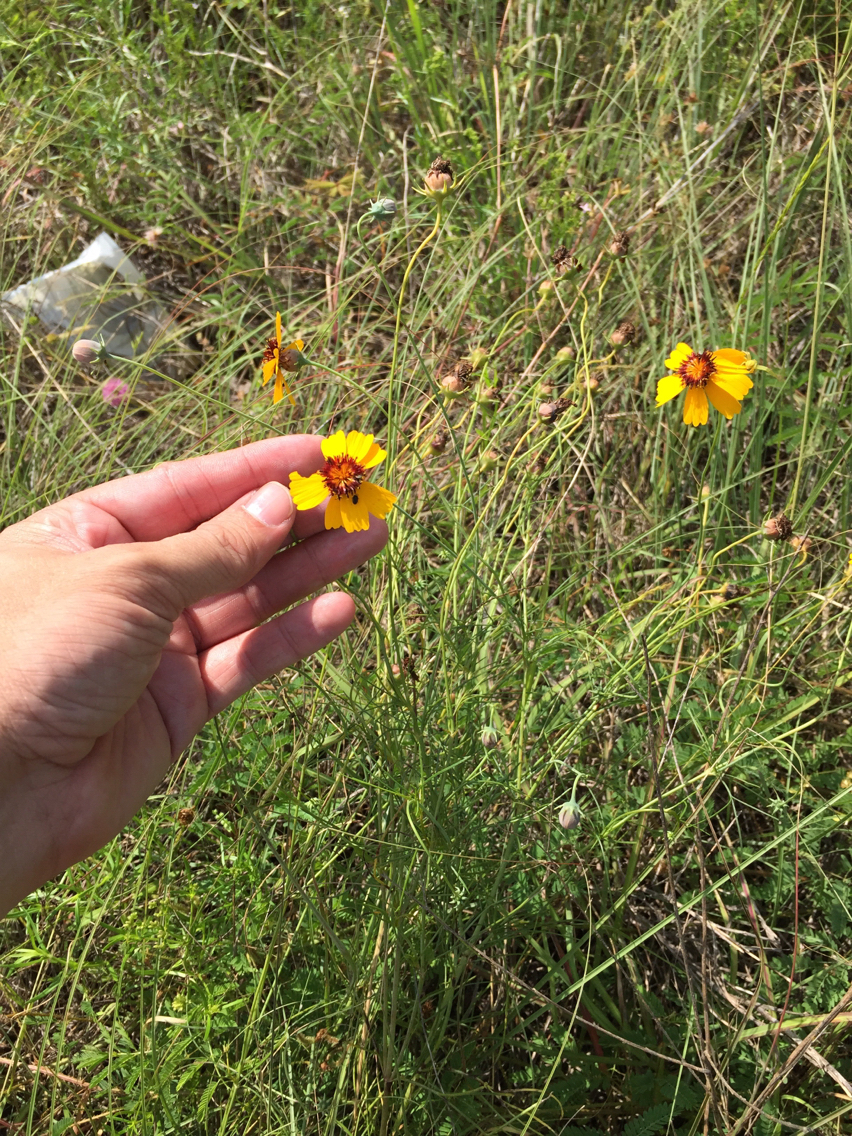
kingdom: Plantae
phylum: Tracheophyta
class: Magnoliopsida
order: Asterales
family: Asteraceae
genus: Thelesperma
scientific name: Thelesperma filifolium
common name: Stiff greenthread
